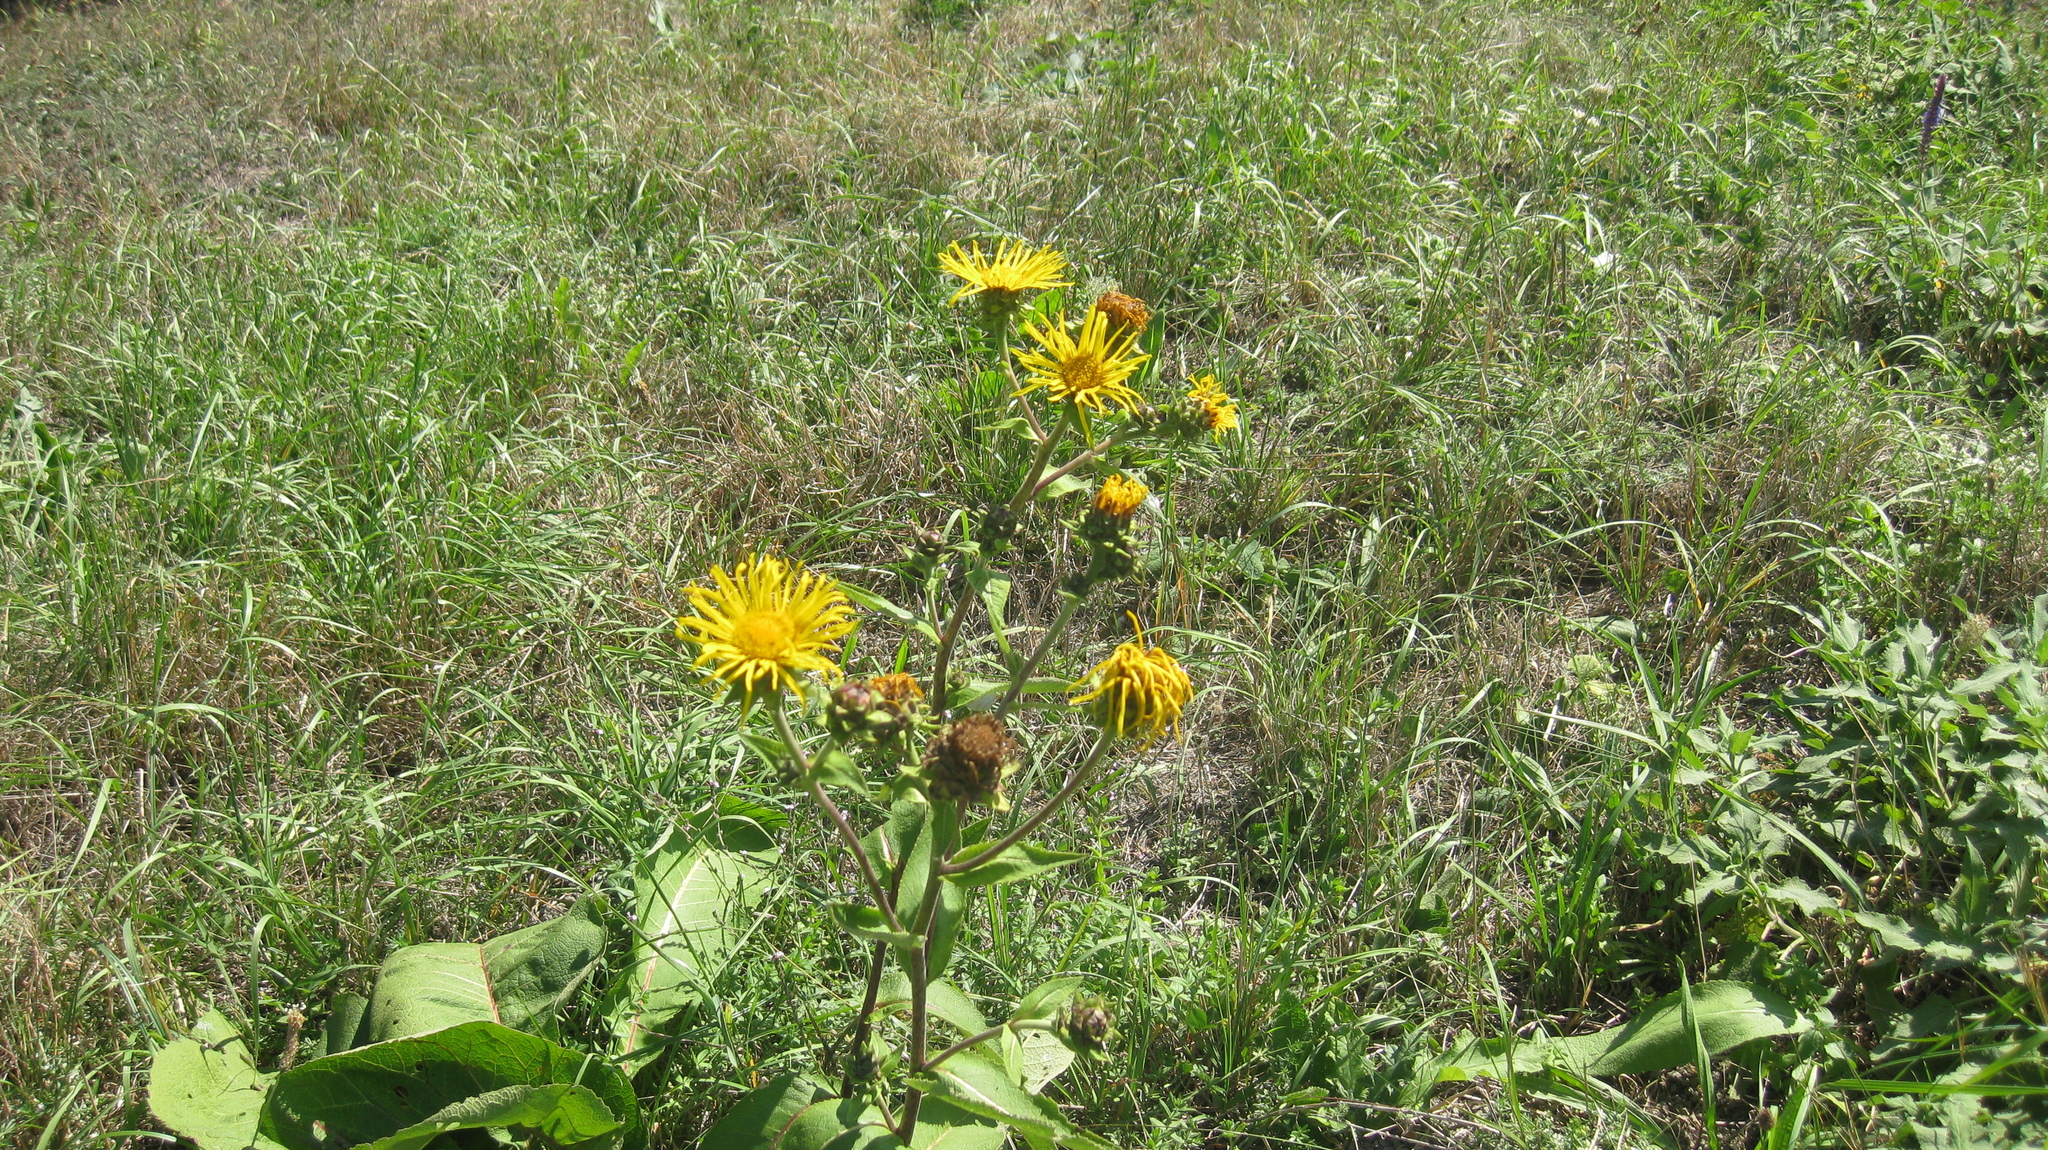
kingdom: Plantae
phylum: Tracheophyta
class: Magnoliopsida
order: Asterales
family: Asteraceae
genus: Inula
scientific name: Inula helenium
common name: Elecampane
